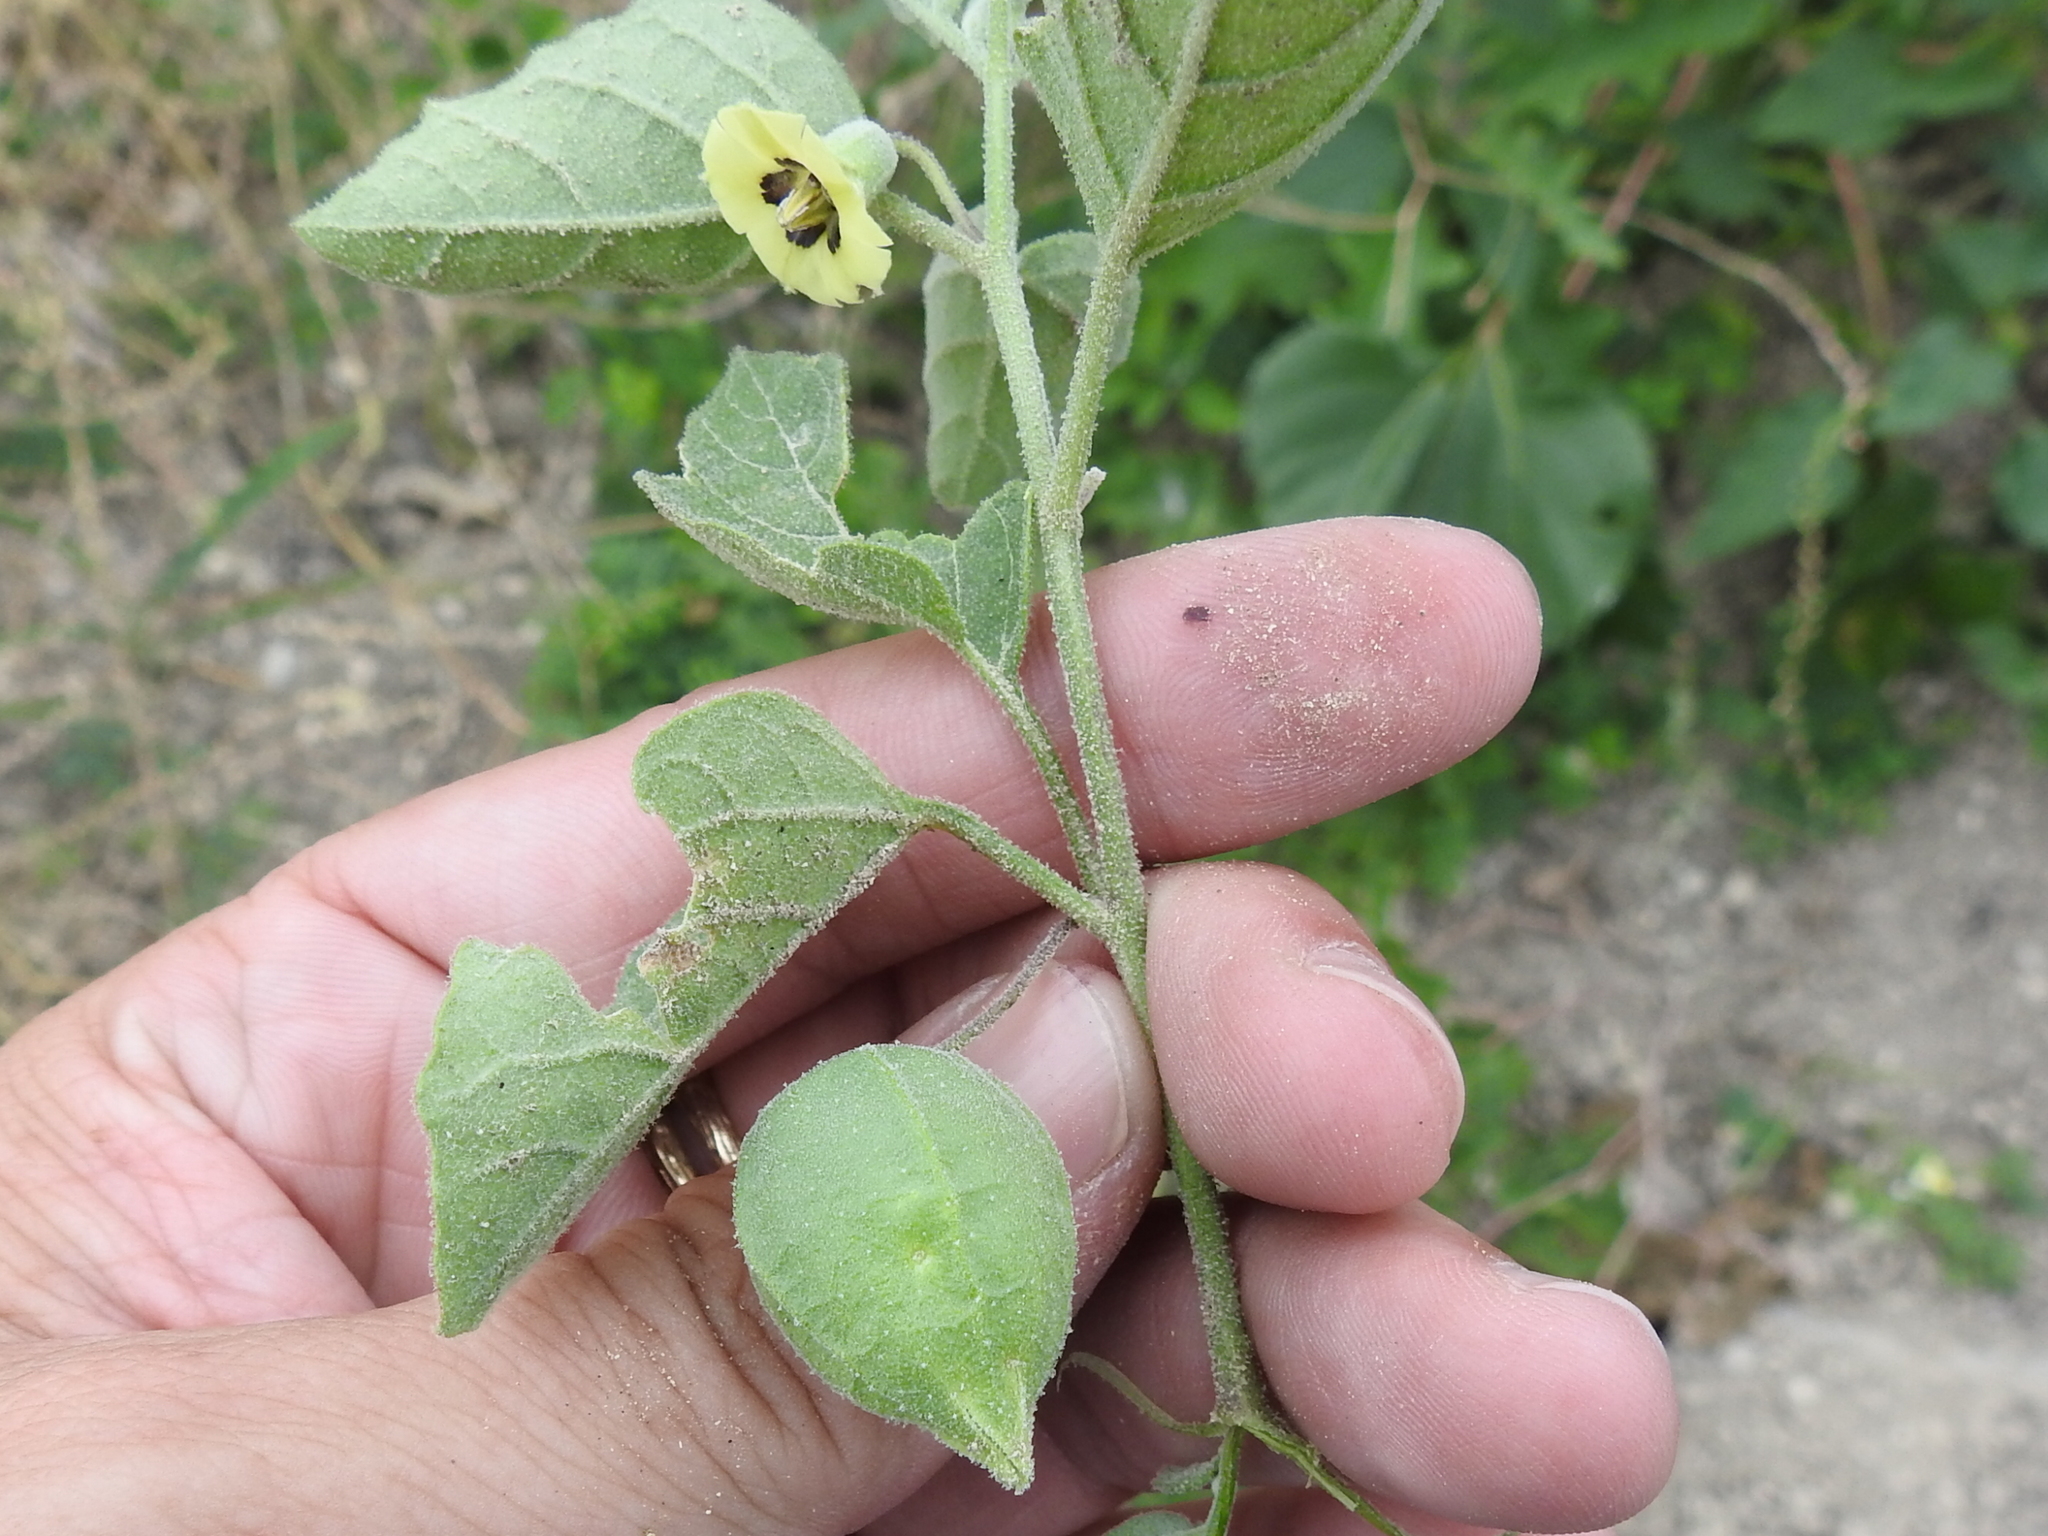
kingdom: Plantae
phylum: Tracheophyta
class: Magnoliopsida
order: Solanales
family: Solanaceae
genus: Physalis
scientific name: Physalis cinerascens
